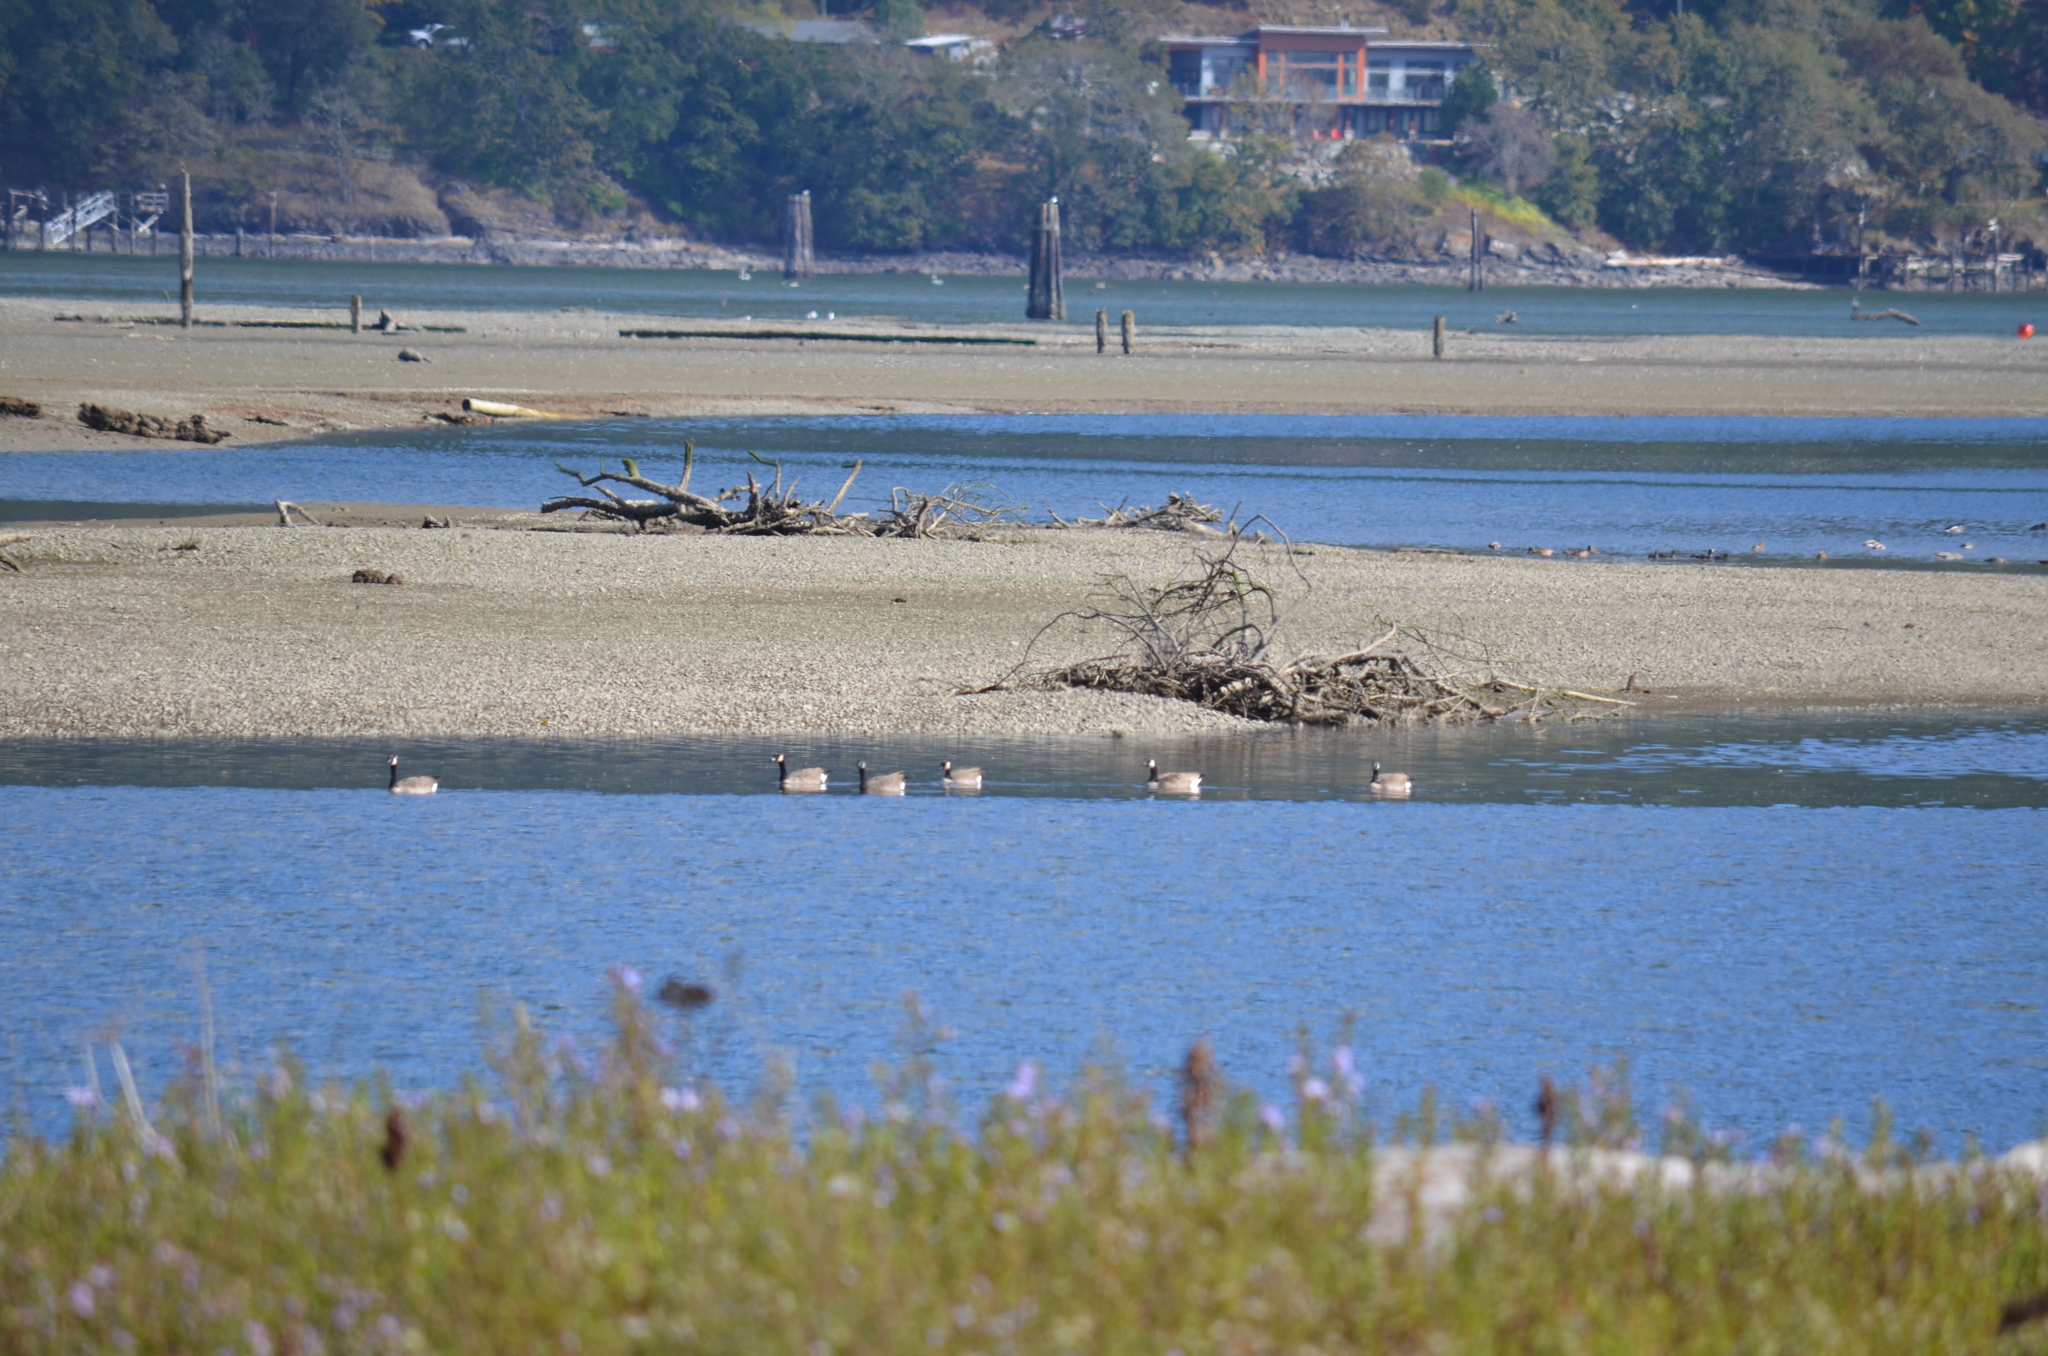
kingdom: Animalia
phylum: Chordata
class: Aves
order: Anseriformes
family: Anatidae
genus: Branta
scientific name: Branta canadensis
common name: Canada goose
